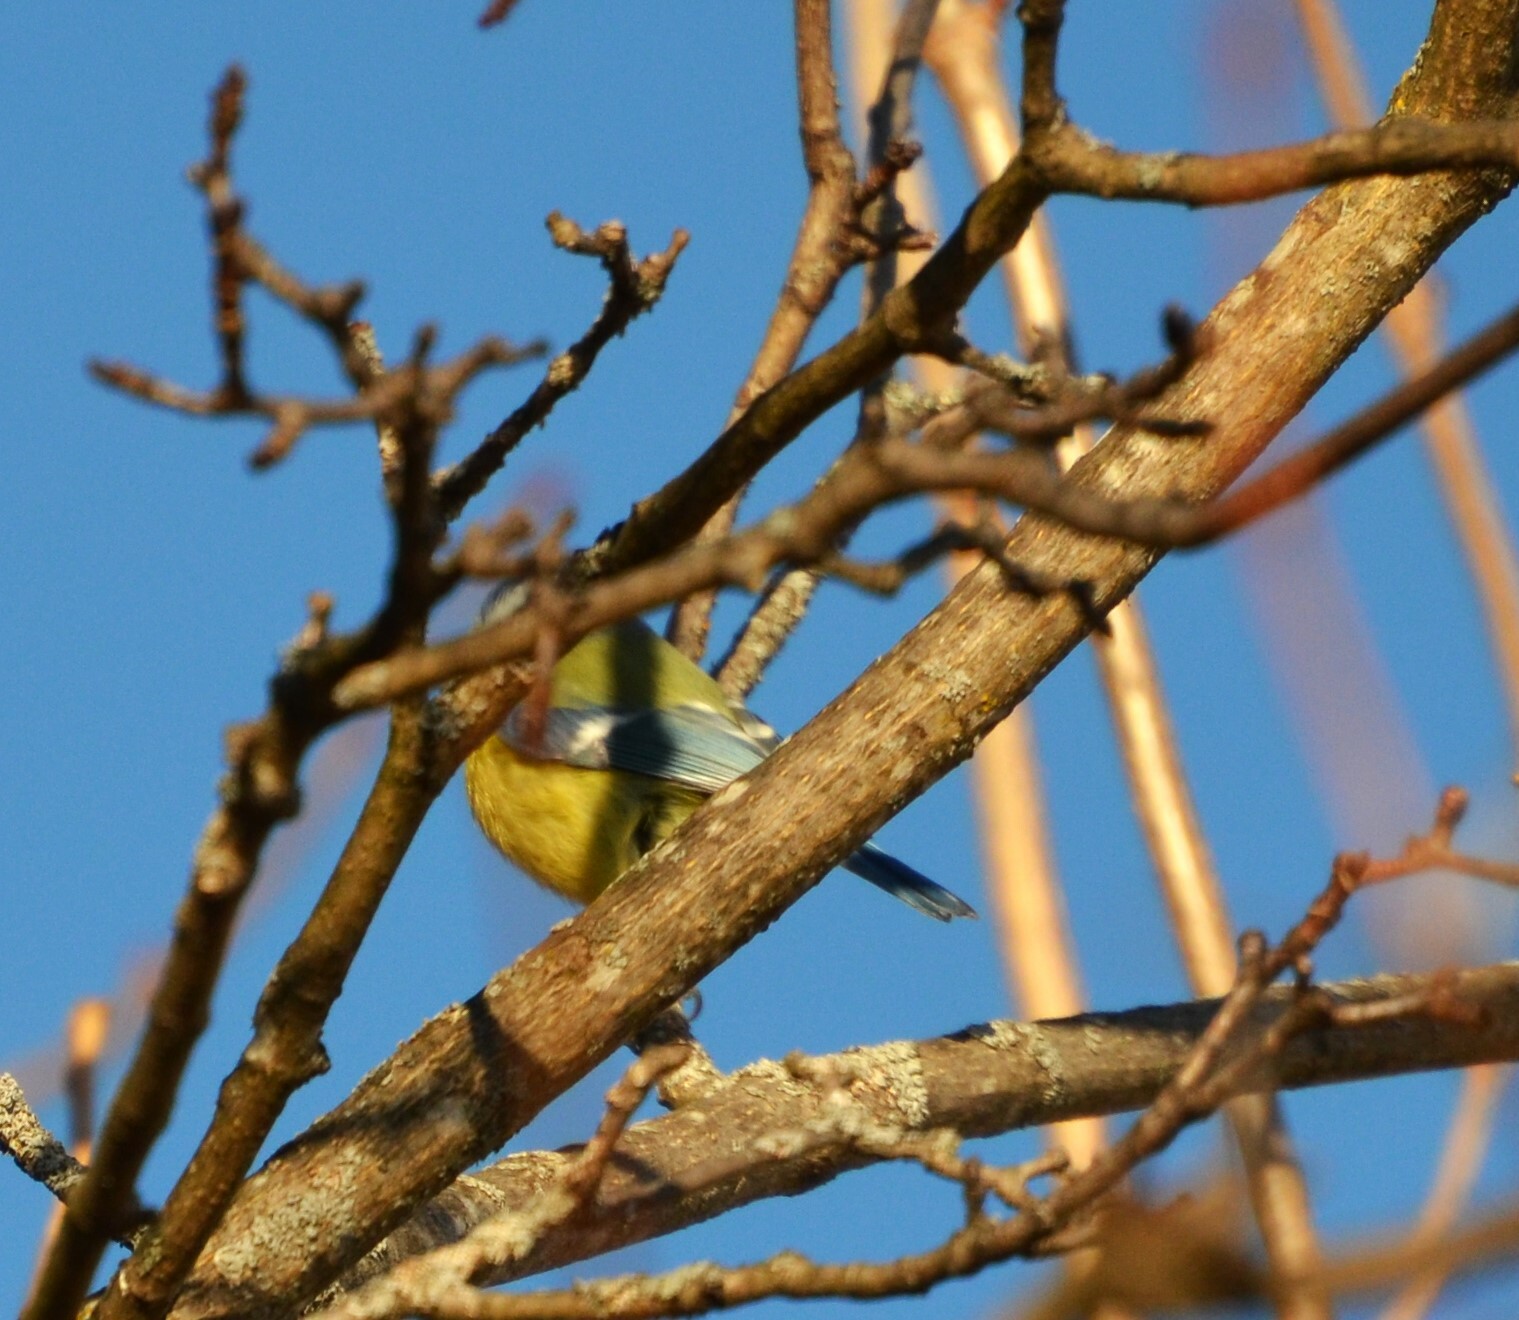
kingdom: Animalia
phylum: Chordata
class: Aves
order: Passeriformes
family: Paridae
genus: Cyanistes
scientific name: Cyanistes caeruleus
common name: Eurasian blue tit
